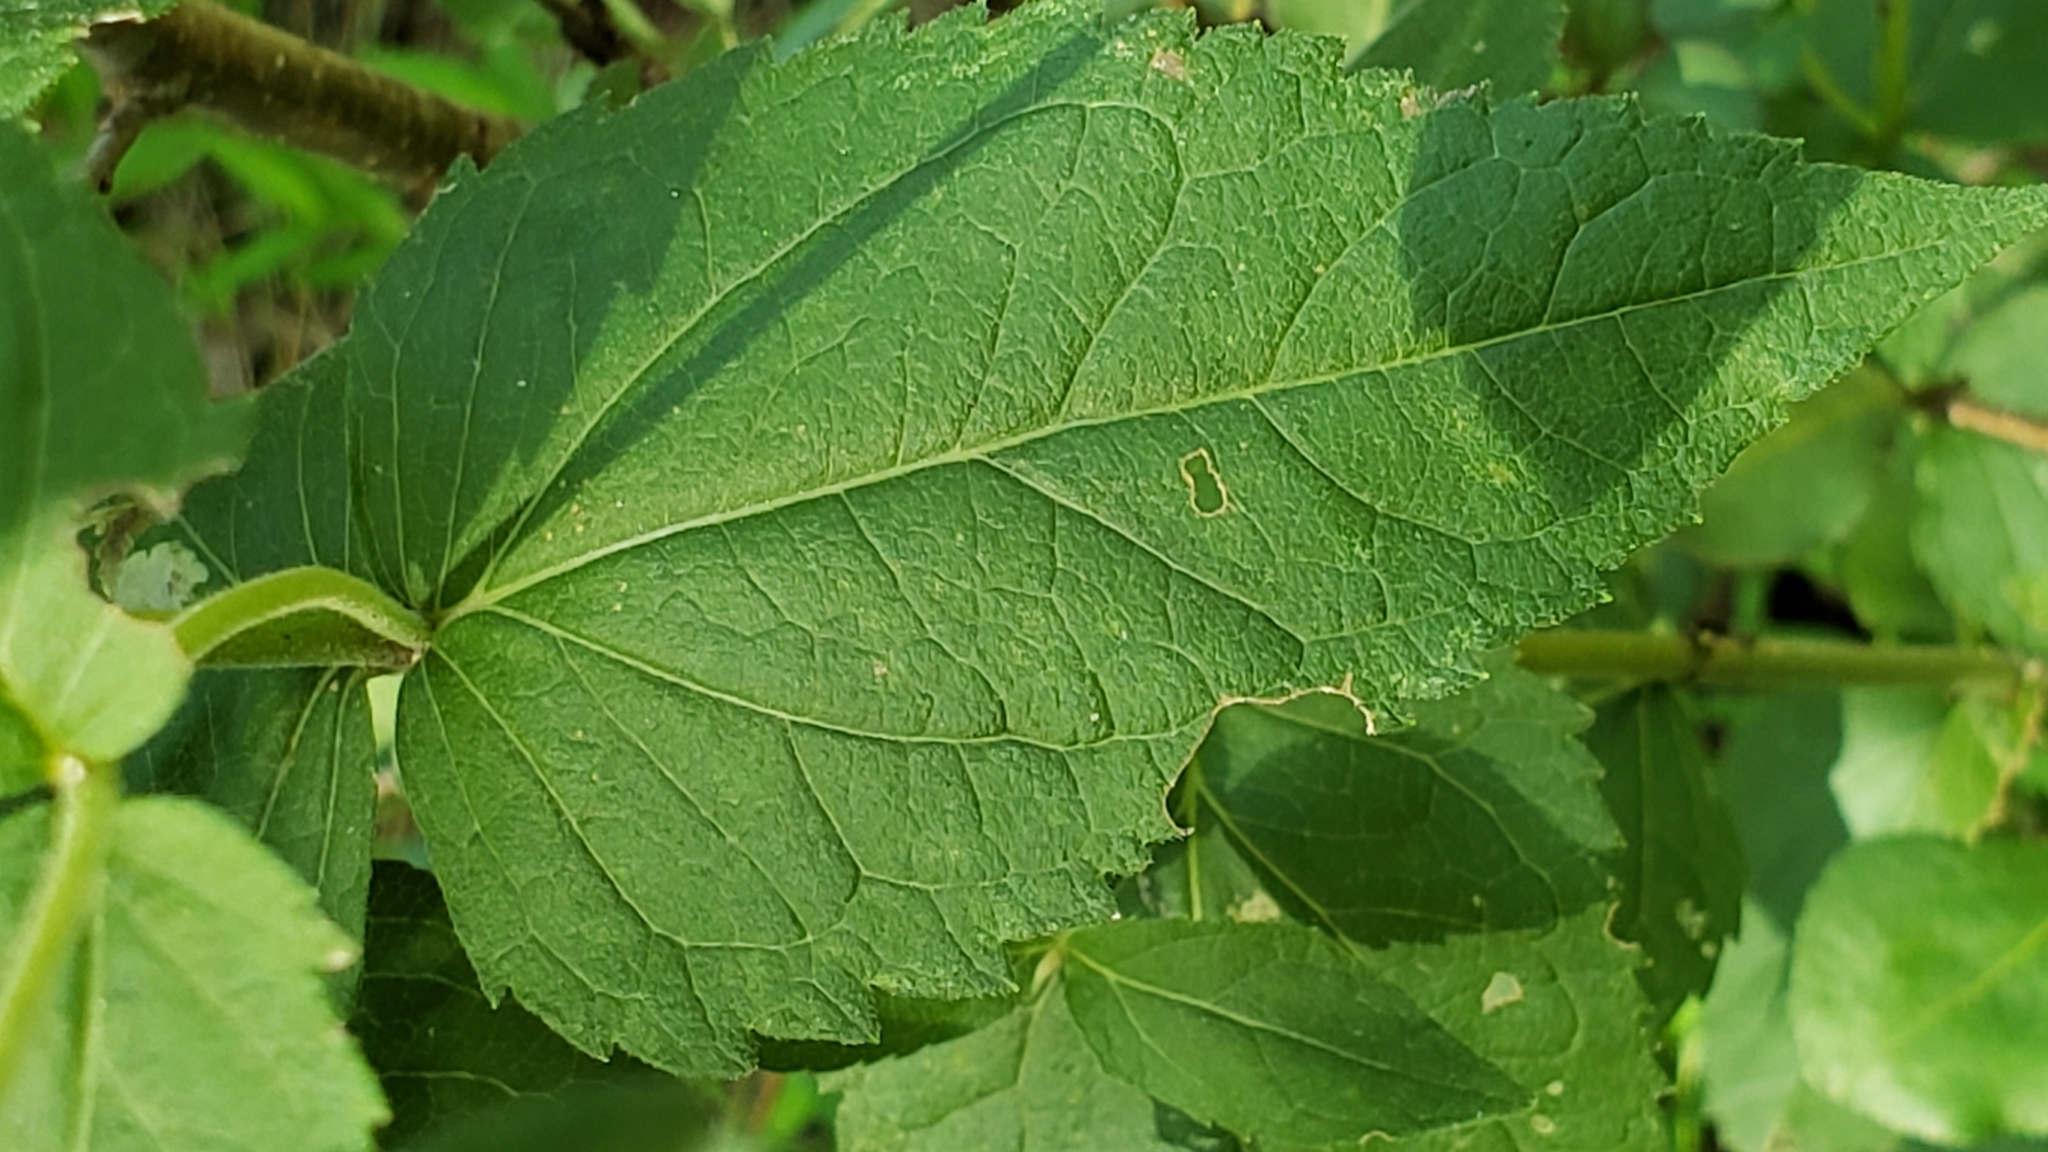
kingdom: Plantae
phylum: Tracheophyta
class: Magnoliopsida
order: Asterales
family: Asteraceae
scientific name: Asteraceae
